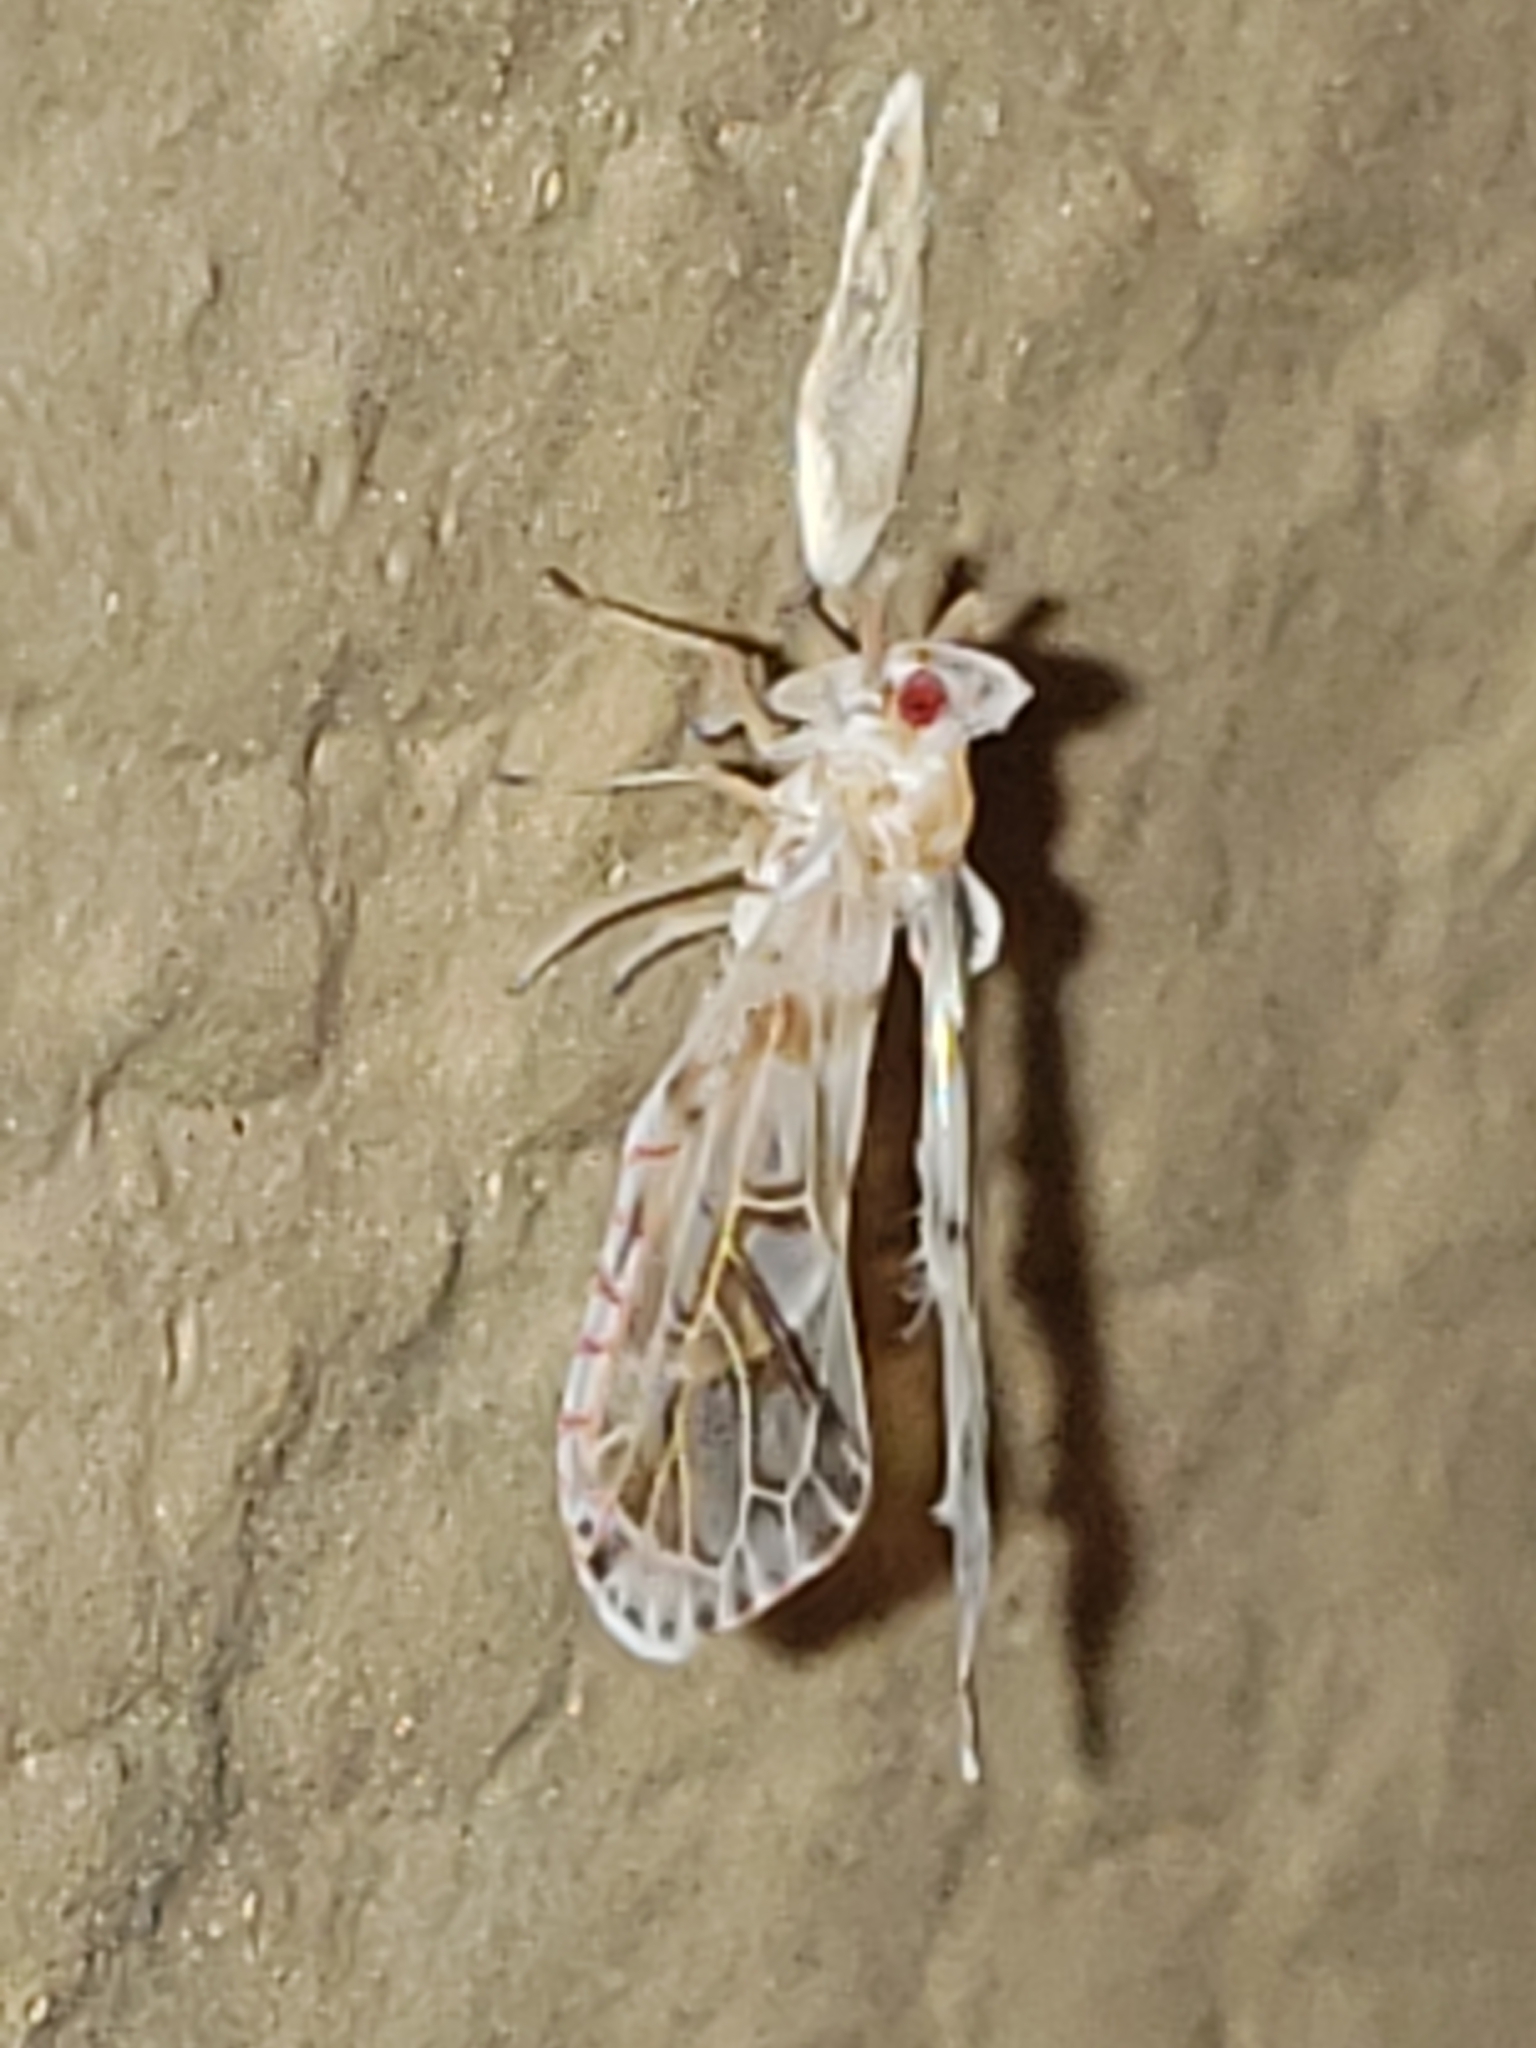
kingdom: Animalia
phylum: Arthropoda
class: Insecta
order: Hemiptera
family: Derbidae
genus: Anotia
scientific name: Anotia kirkaldyi
